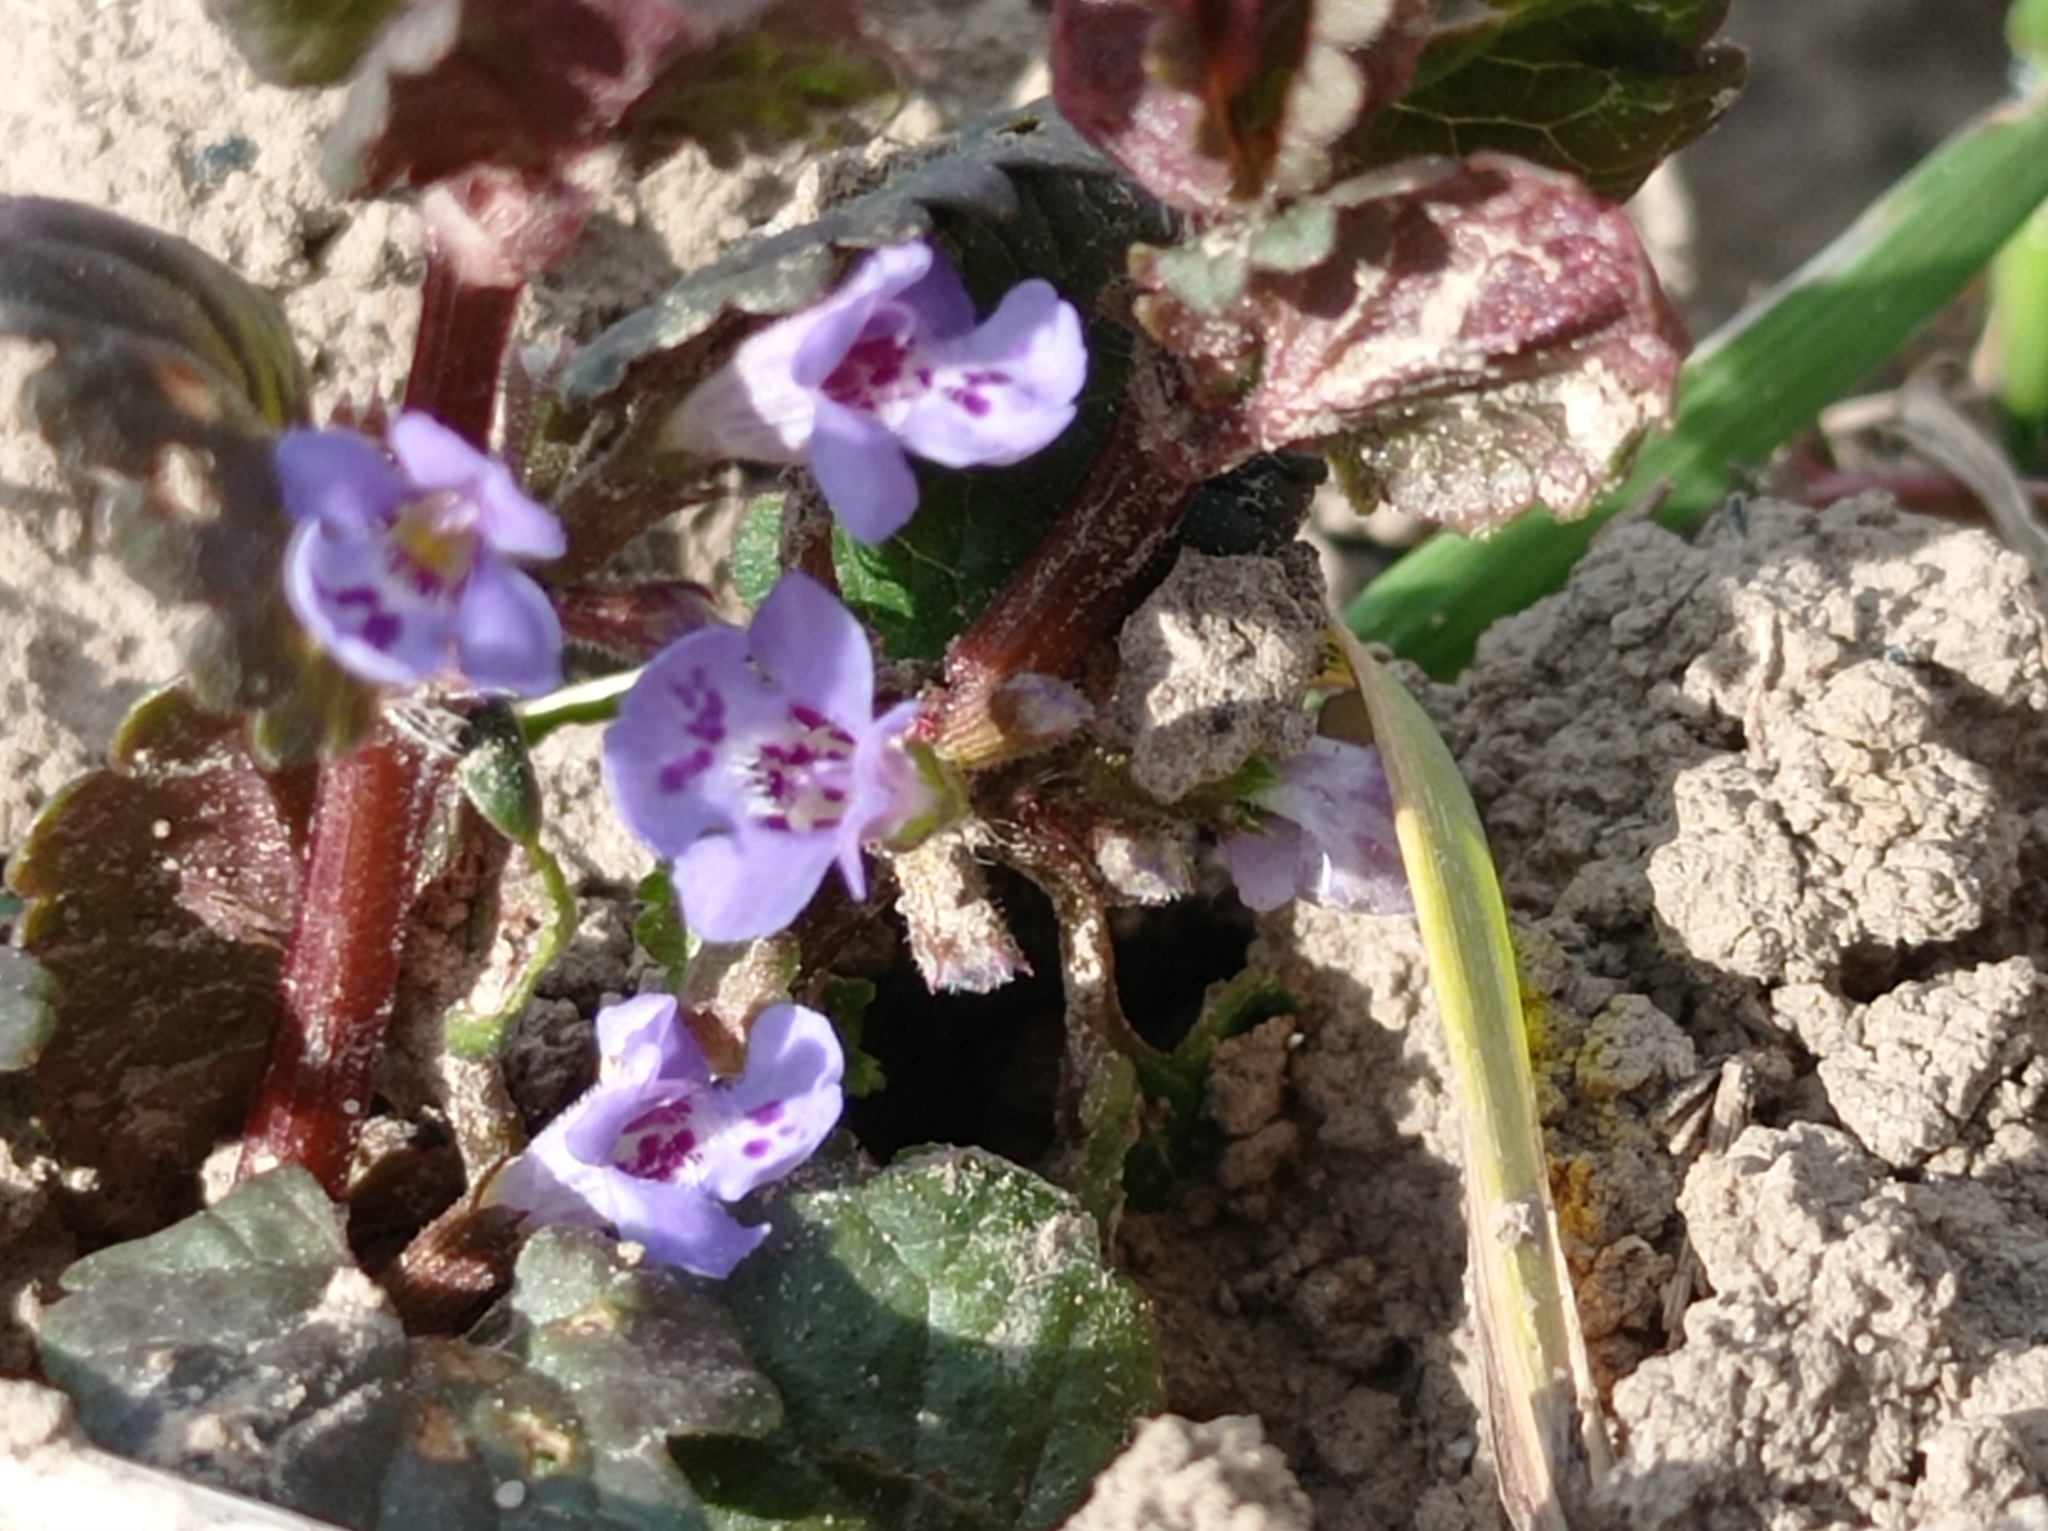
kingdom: Plantae
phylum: Tracheophyta
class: Magnoliopsida
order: Lamiales
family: Lamiaceae
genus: Glechoma
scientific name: Glechoma hederacea
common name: Ground ivy
